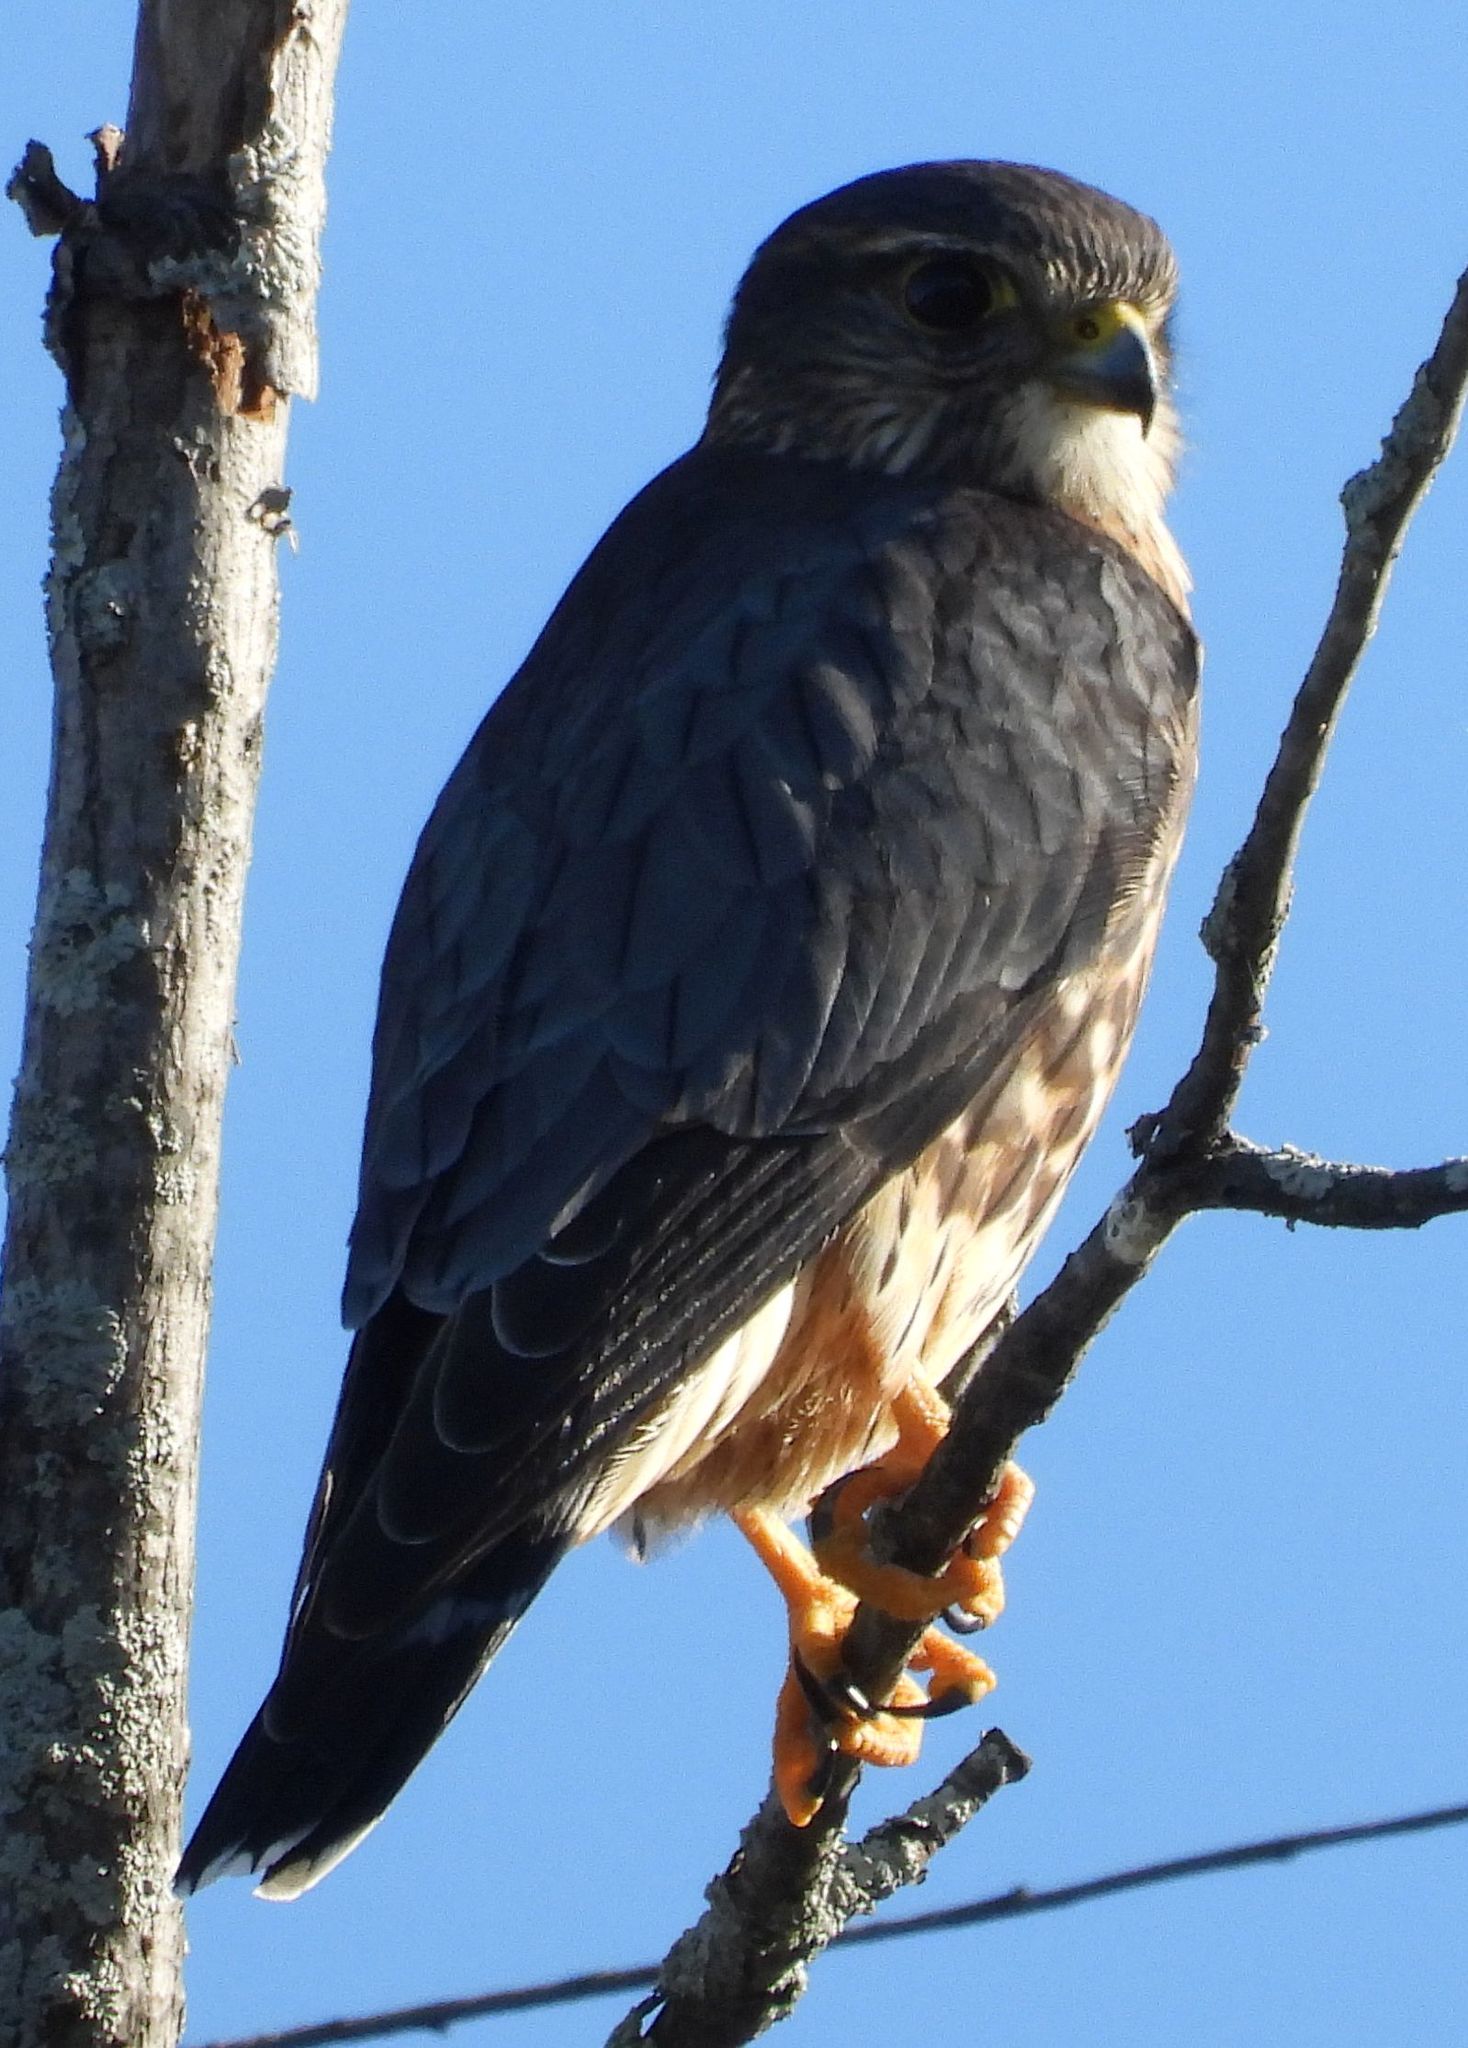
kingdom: Animalia
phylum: Chordata
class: Aves
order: Falconiformes
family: Falconidae
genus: Falco
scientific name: Falco columbarius
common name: Merlin
